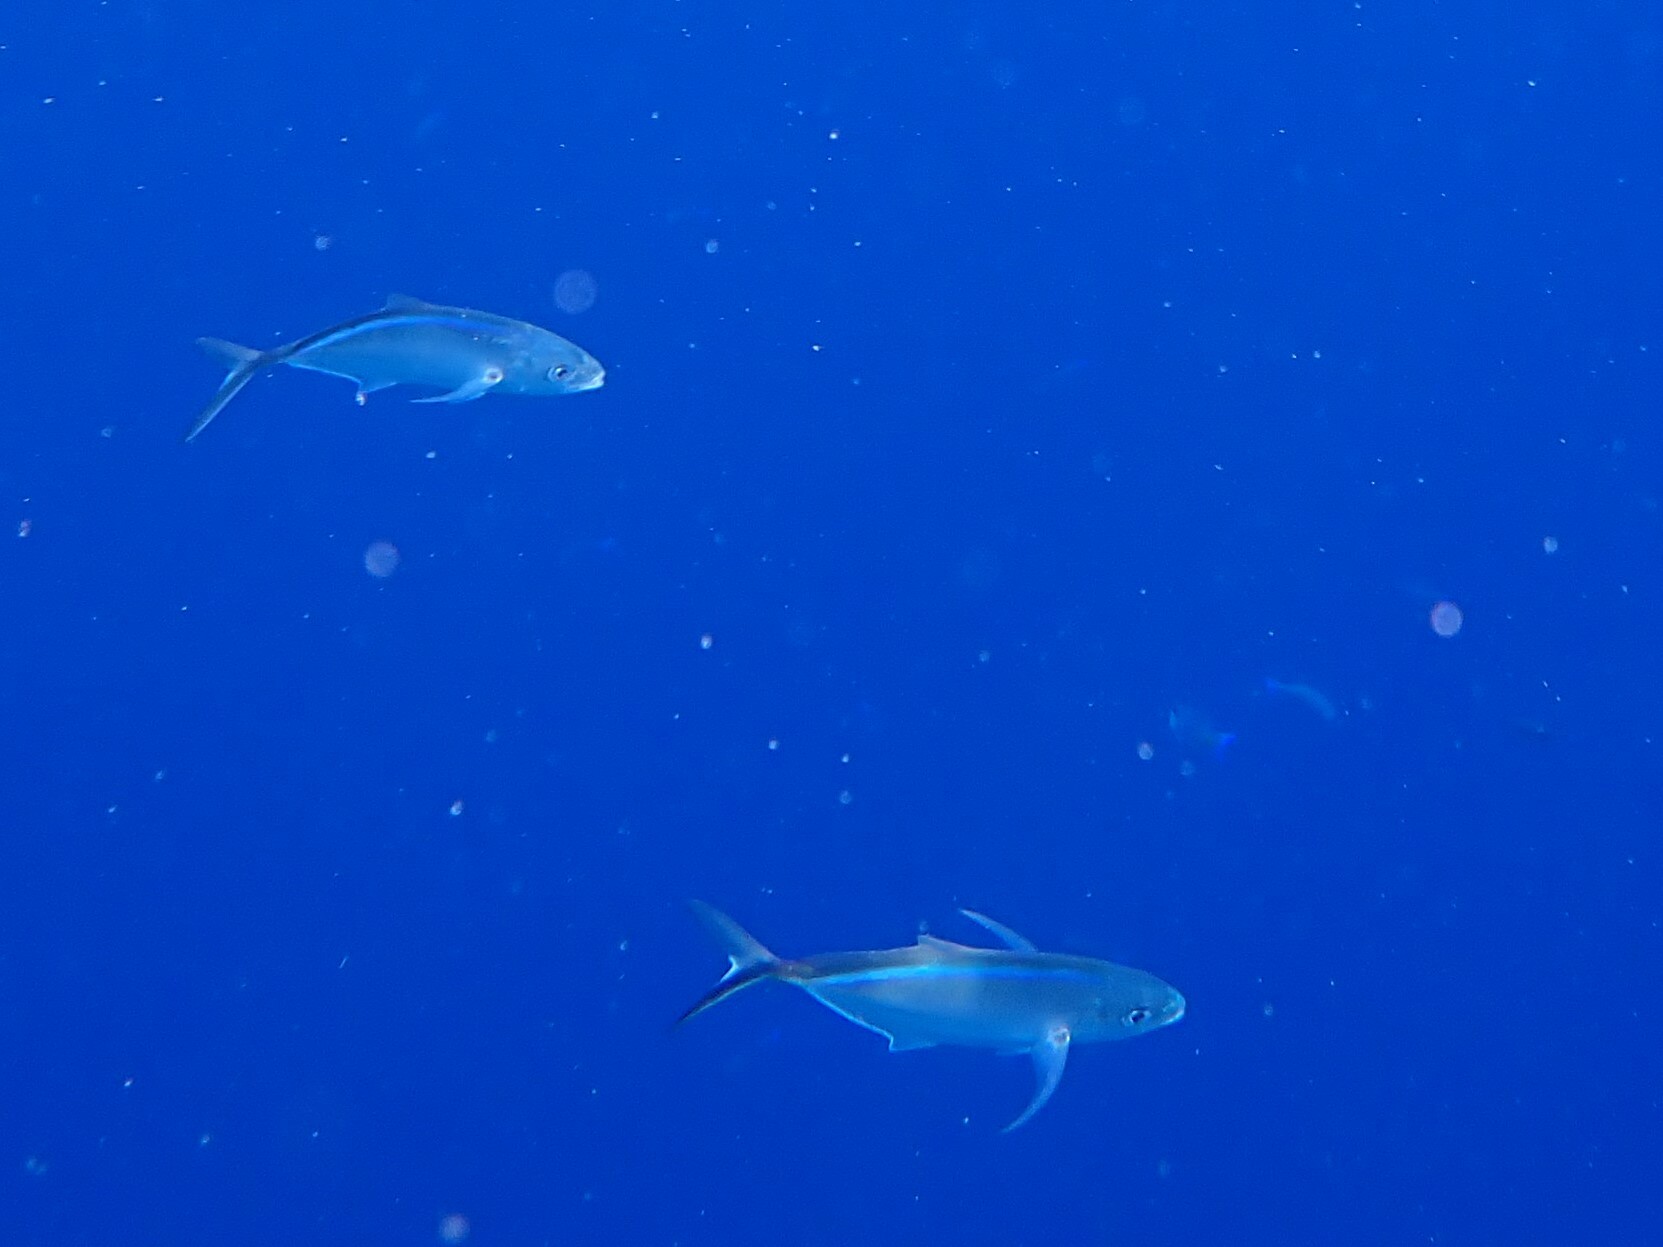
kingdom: Animalia
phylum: Chordata
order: Perciformes
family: Carangidae
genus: Caranx
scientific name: Caranx ruber
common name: Bar jack
